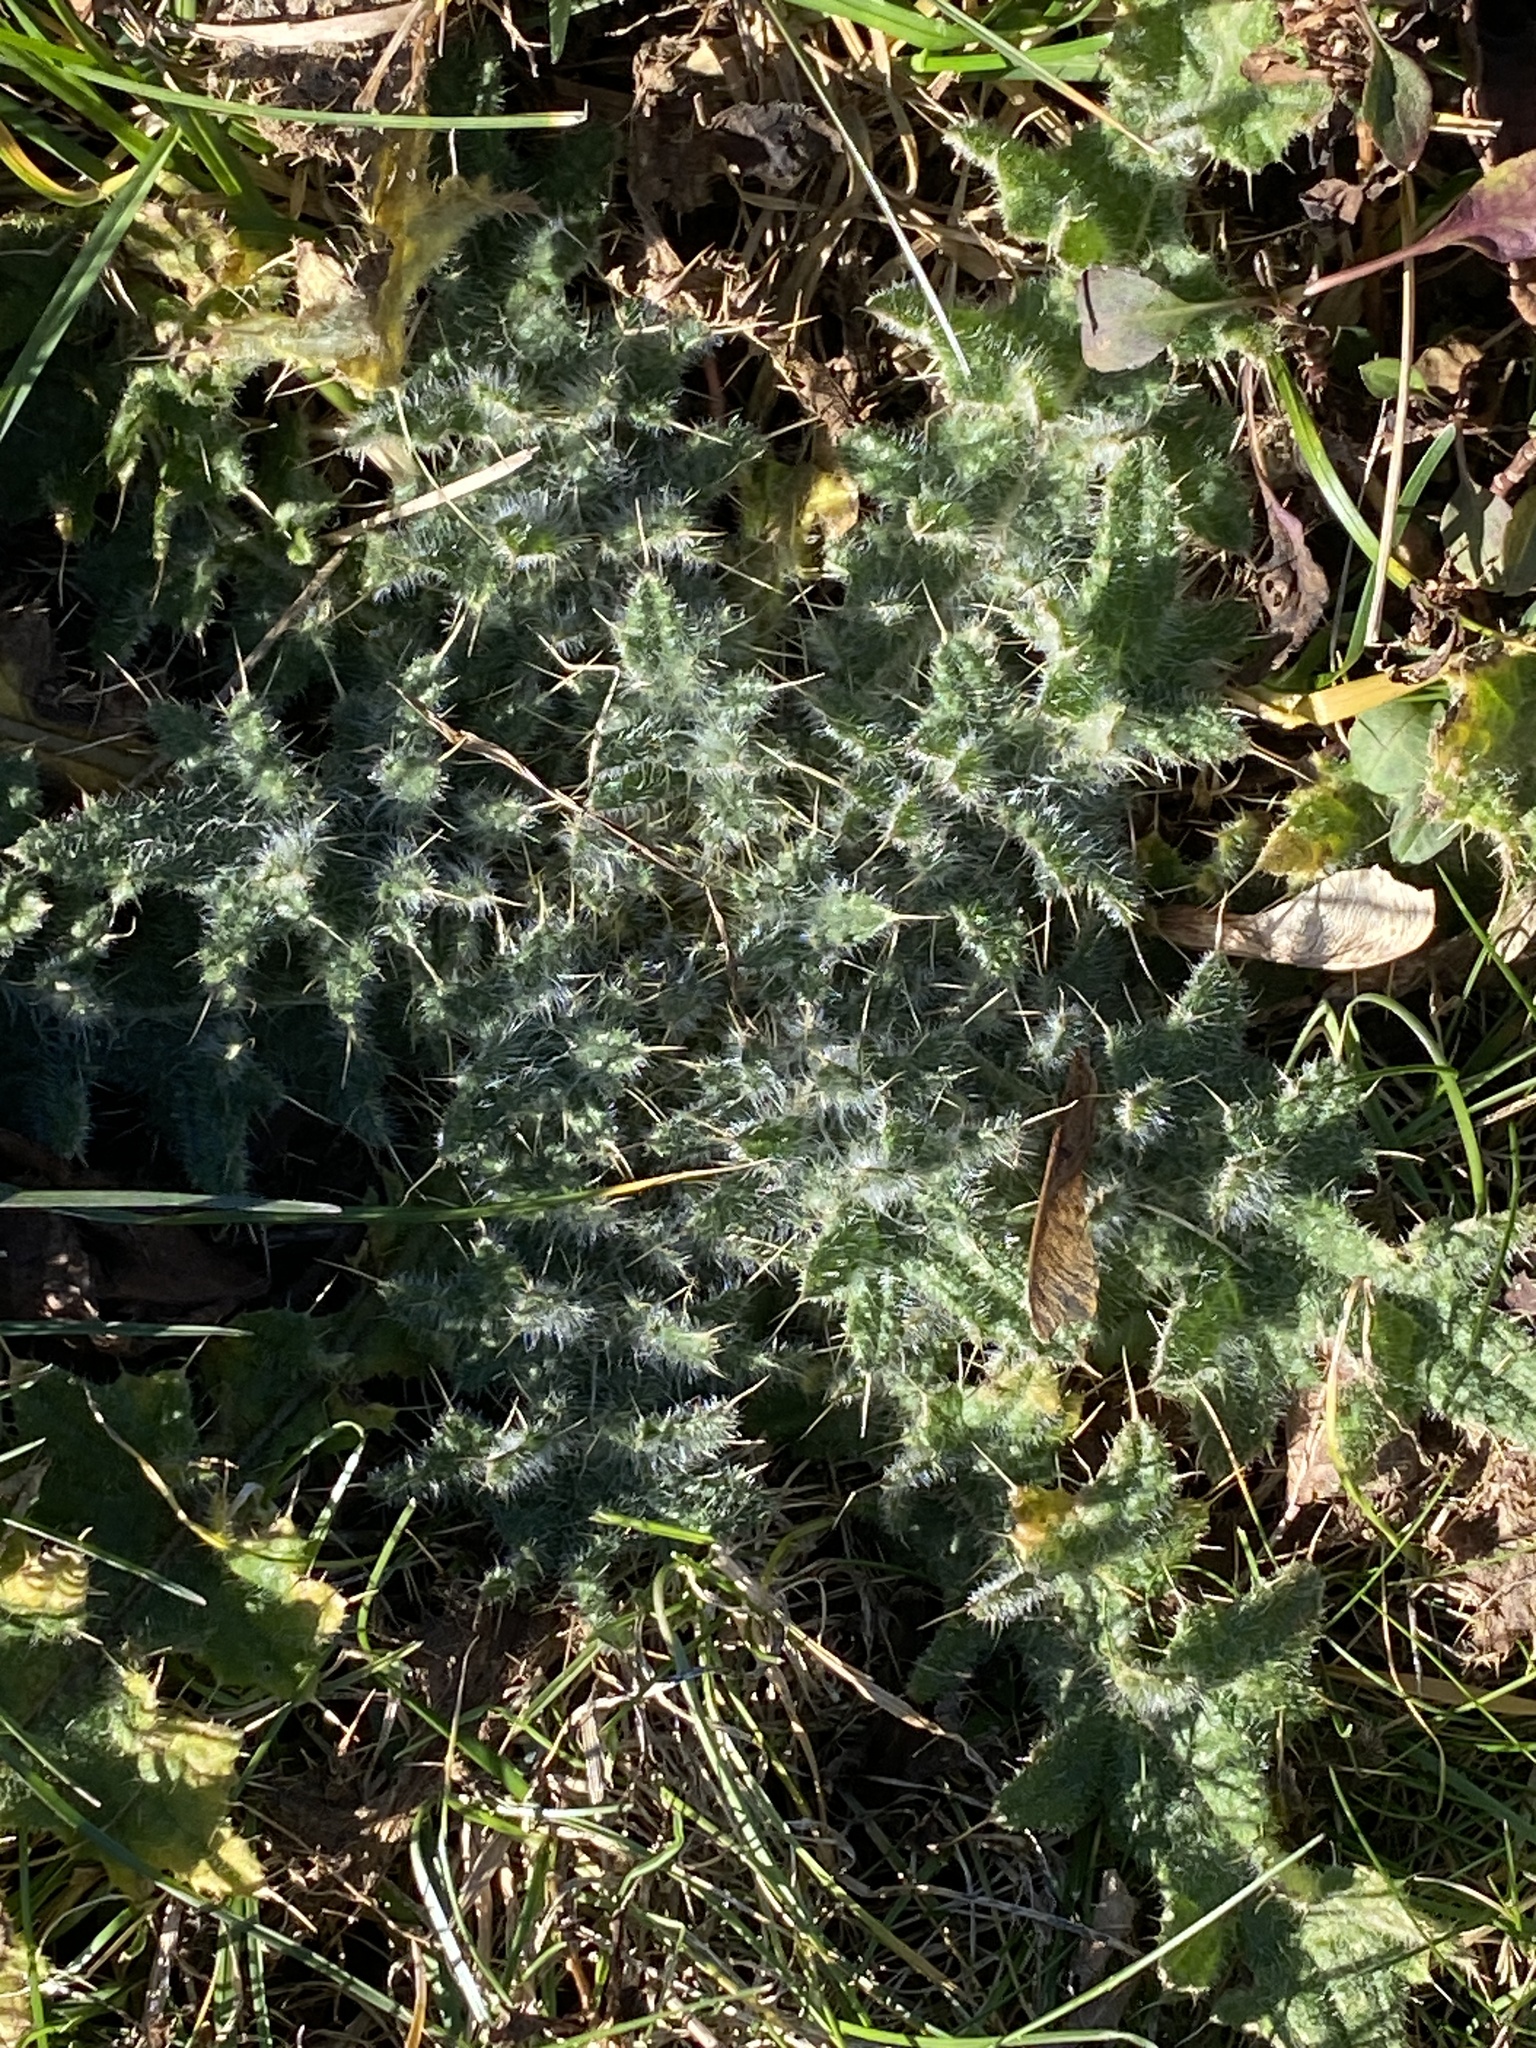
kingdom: Plantae
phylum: Tracheophyta
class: Magnoliopsida
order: Asterales
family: Asteraceae
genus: Cirsium
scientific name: Cirsium vulgare
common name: Bull thistle
